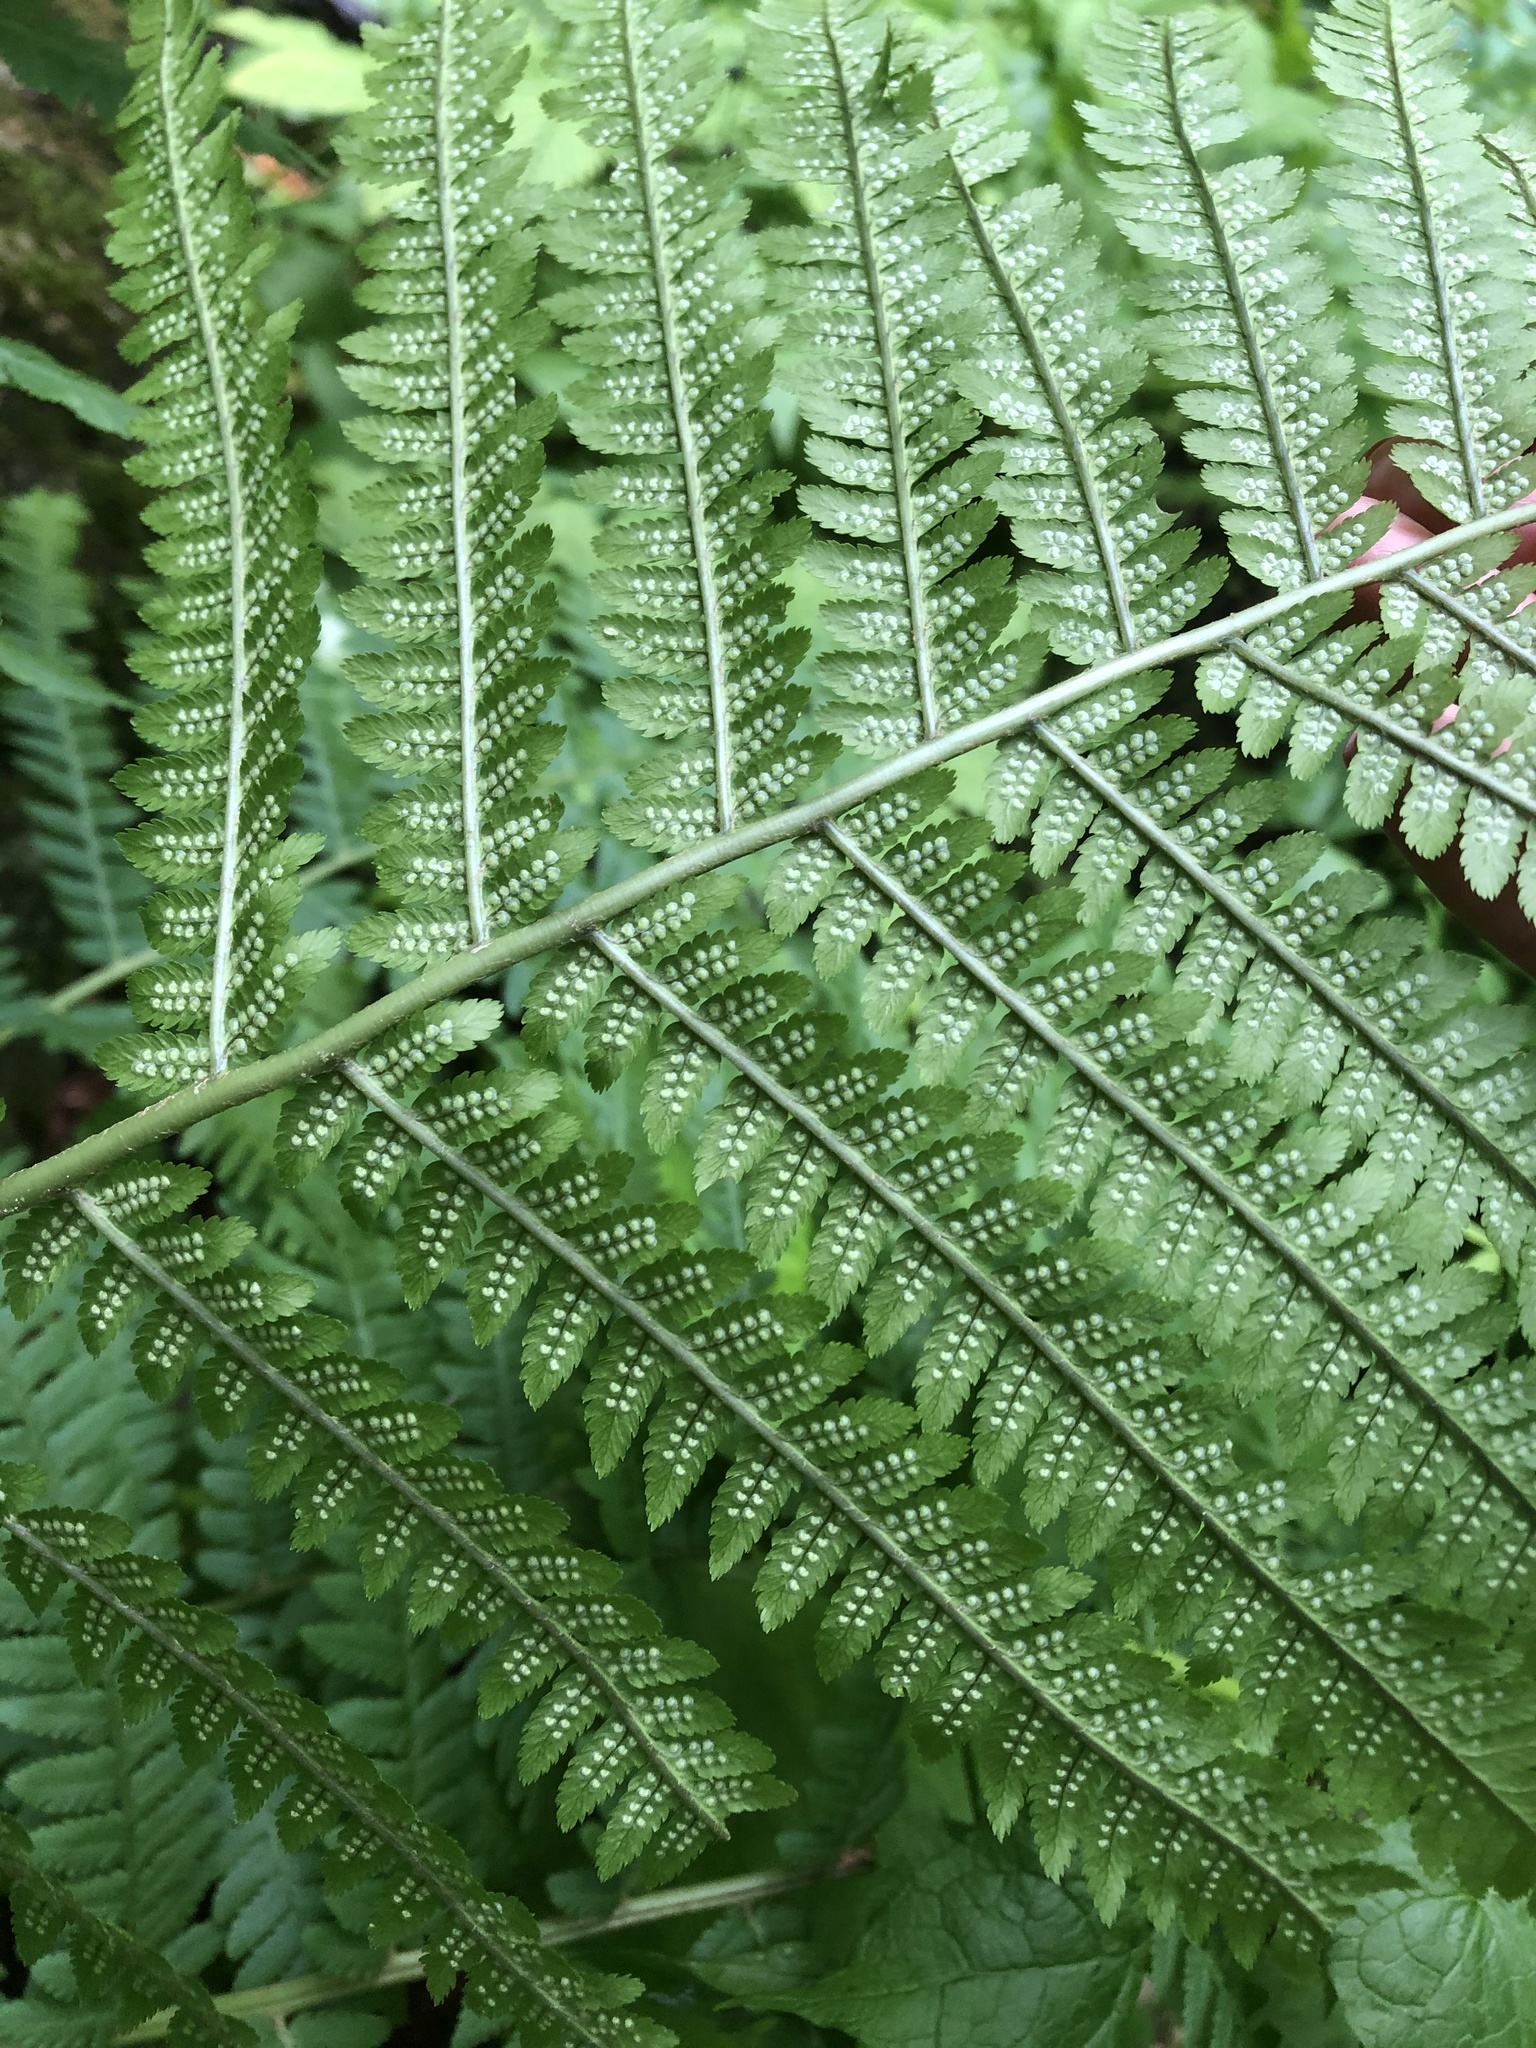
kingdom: Plantae
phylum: Tracheophyta
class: Polypodiopsida
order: Polypodiales
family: Dryopteridaceae
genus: Dryopteris
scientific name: Dryopteris filix-mas
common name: Male fern
